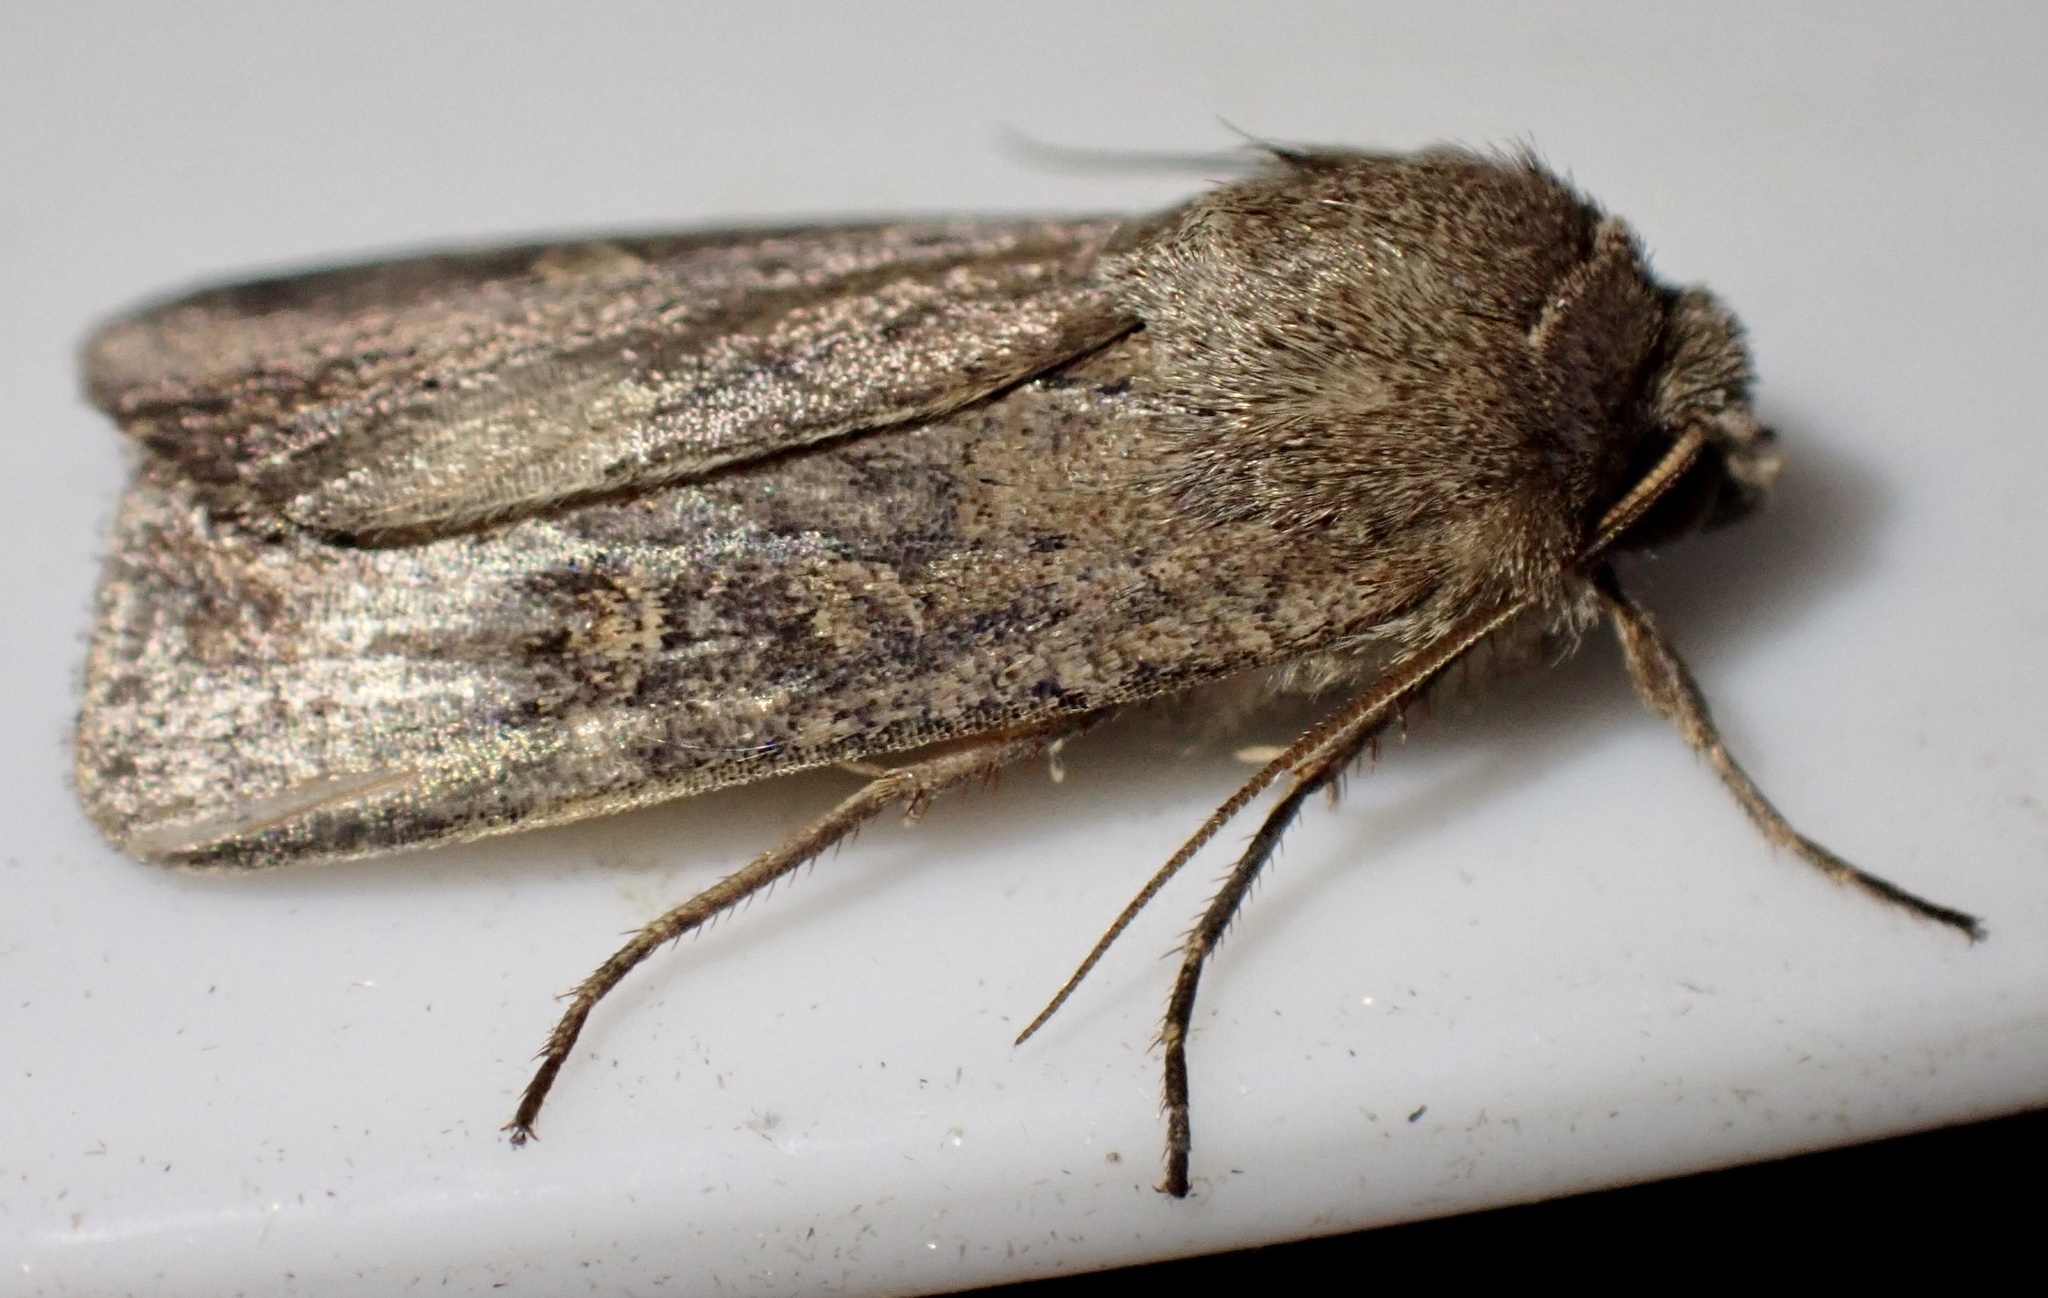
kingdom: Animalia
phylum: Arthropoda
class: Insecta
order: Lepidoptera
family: Noctuidae
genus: Xestia
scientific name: Xestia xanthographa
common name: Square-spot rustic
